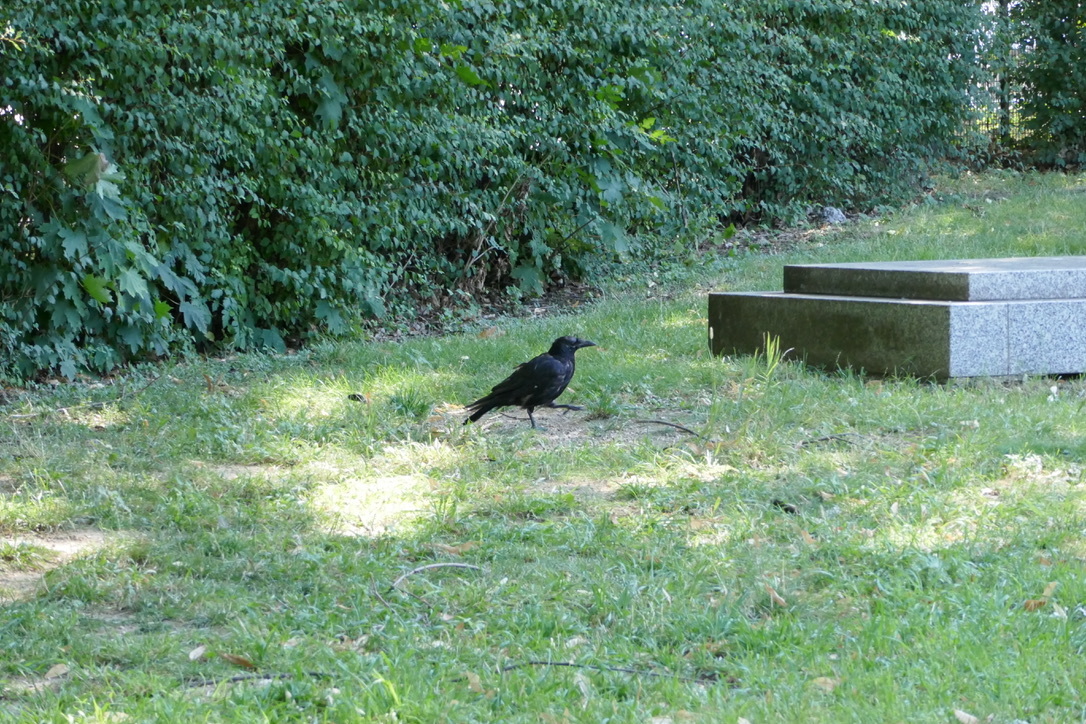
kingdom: Animalia
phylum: Chordata
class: Aves
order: Passeriformes
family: Corvidae
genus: Corvus
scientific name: Corvus
